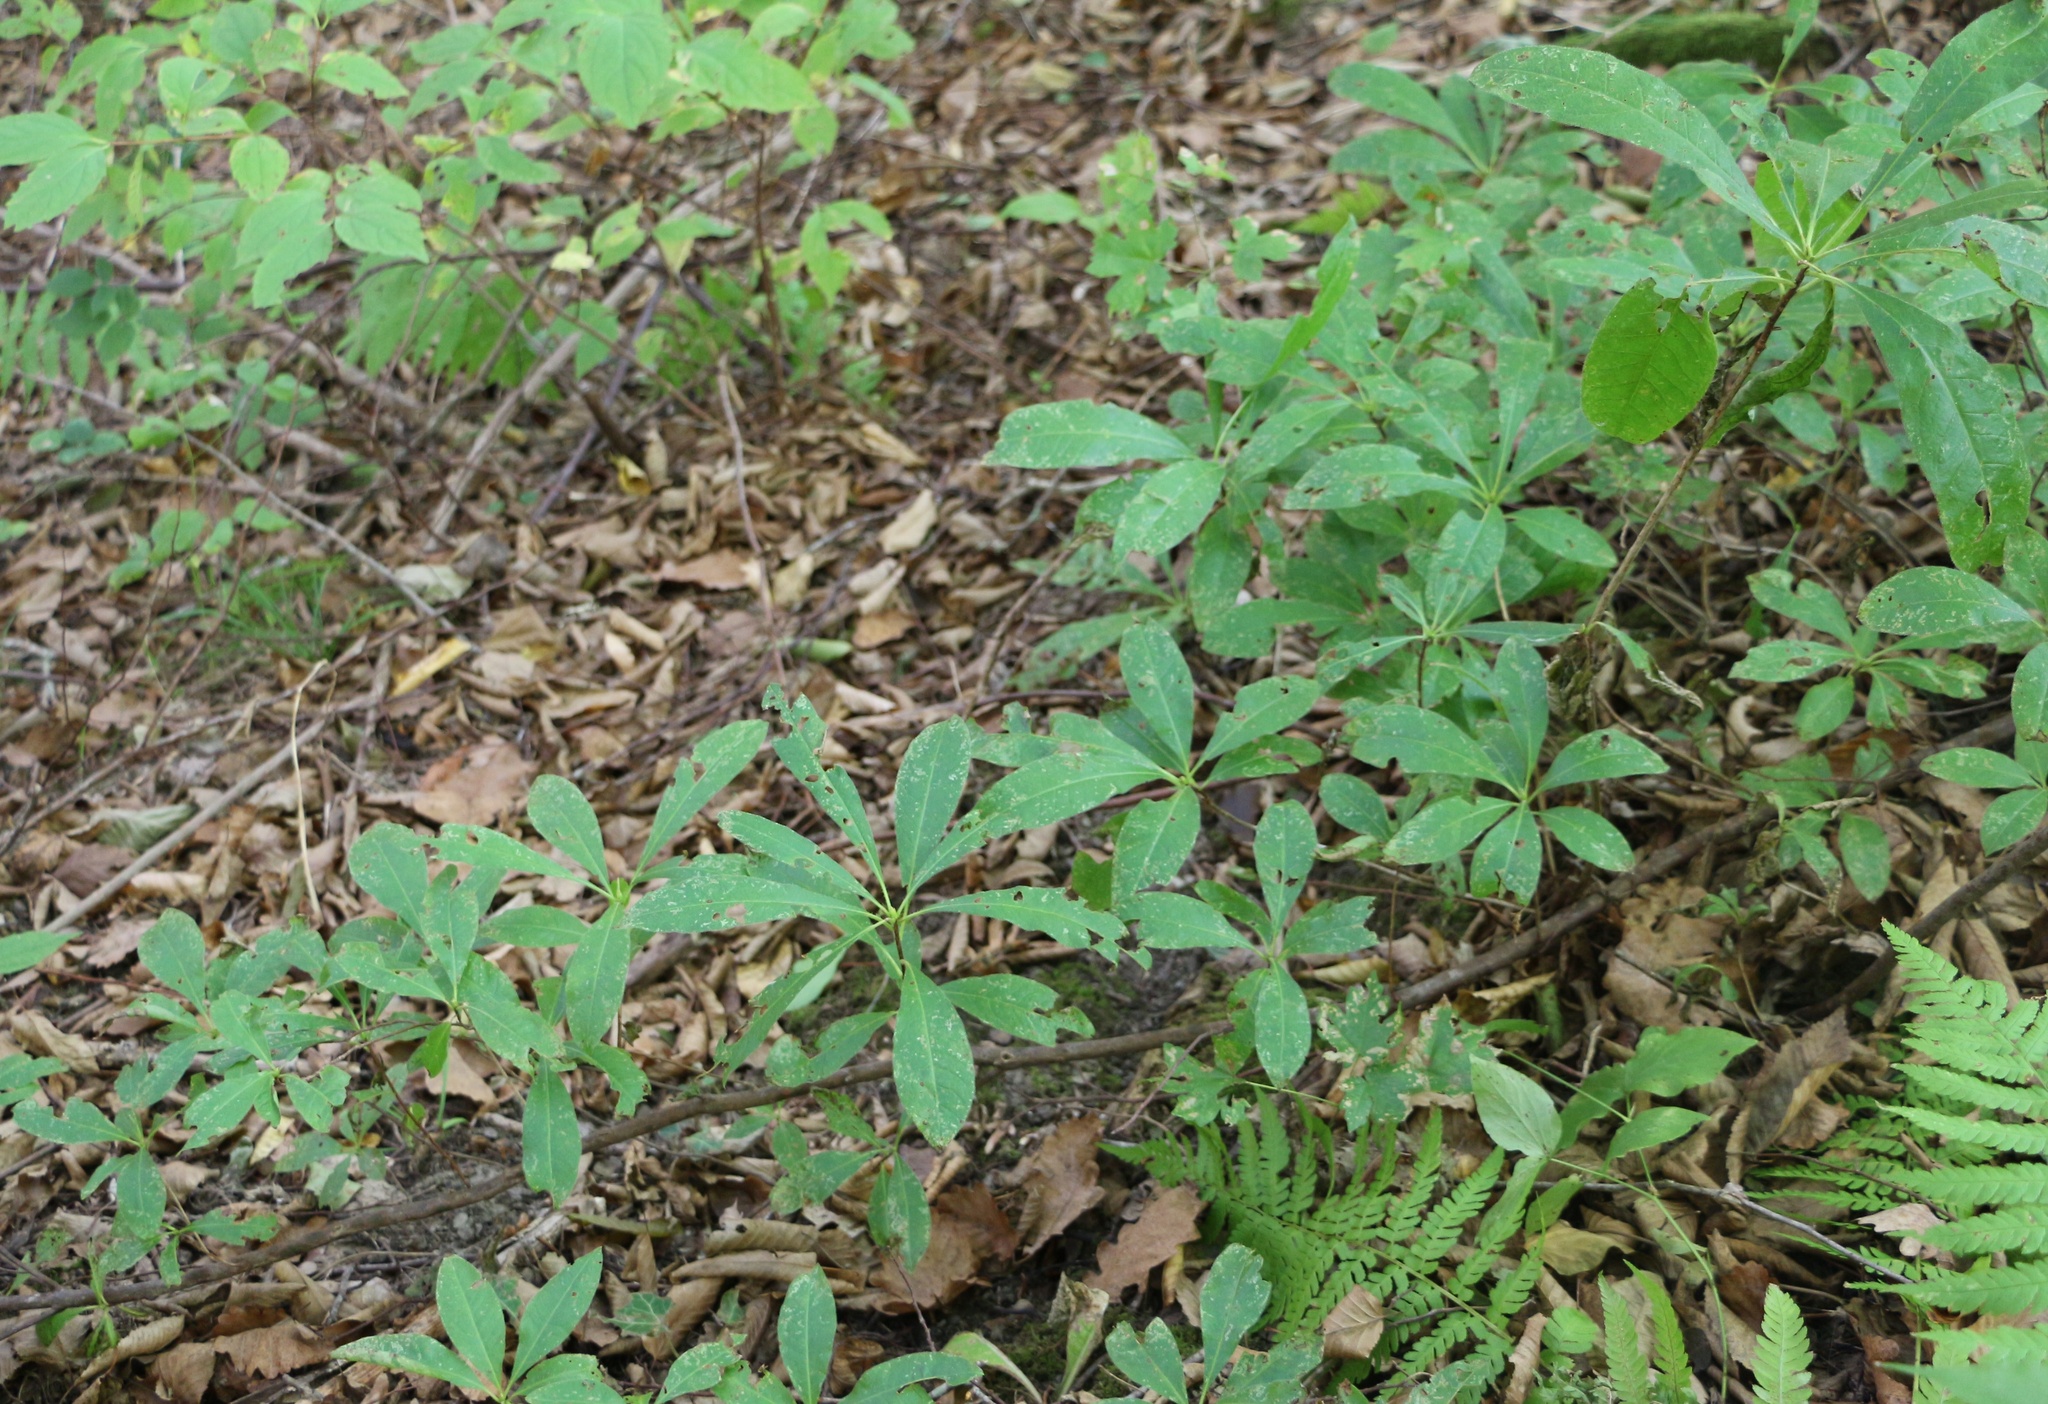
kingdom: Plantae
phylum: Tracheophyta
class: Magnoliopsida
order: Ericales
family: Ericaceae
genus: Rhododendron
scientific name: Rhododendron luteum
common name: Yellow azalea
